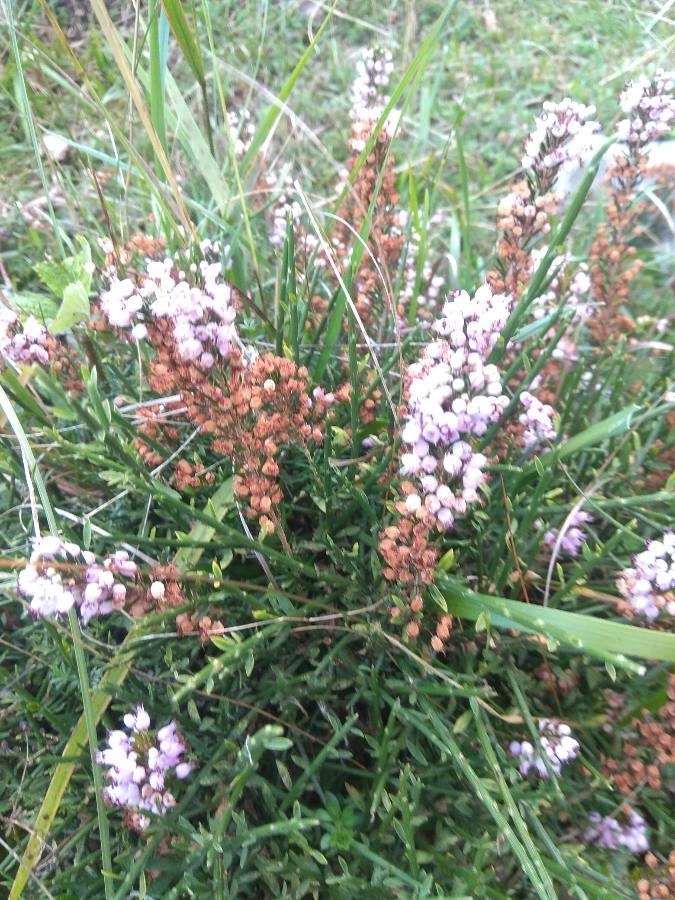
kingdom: Plantae
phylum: Tracheophyta
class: Magnoliopsida
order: Ericales
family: Ericaceae
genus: Erica
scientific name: Erica vagans
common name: Cornish heath
